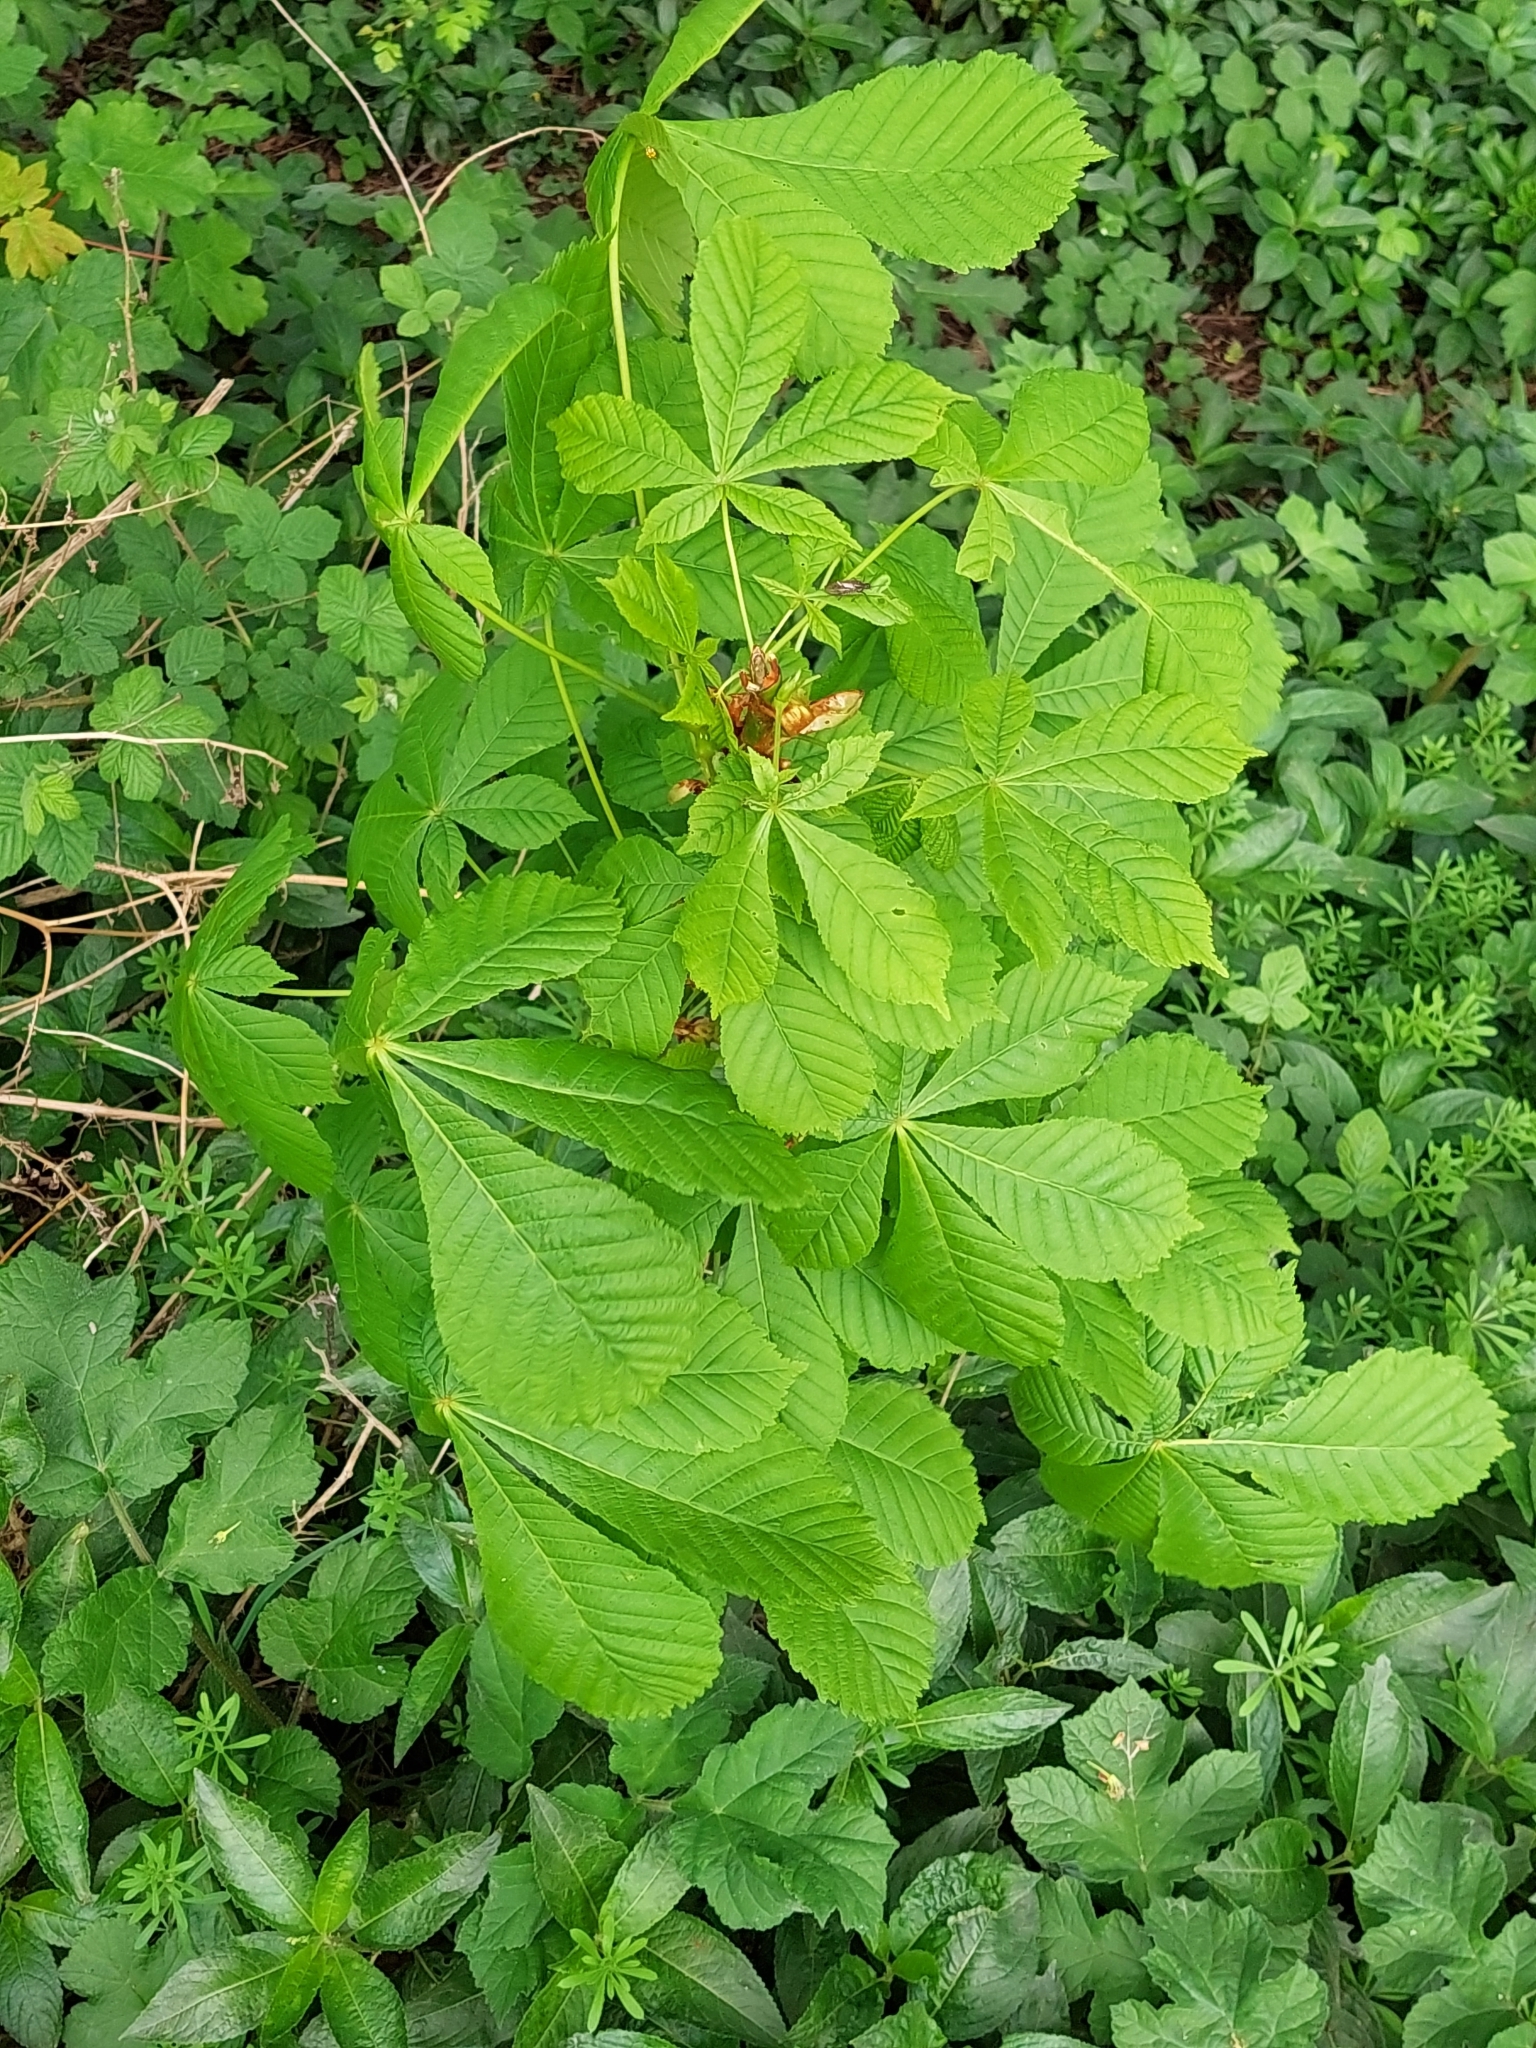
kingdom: Plantae
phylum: Tracheophyta
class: Magnoliopsida
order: Sapindales
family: Sapindaceae
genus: Aesculus
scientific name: Aesculus hippocastanum
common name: Horse-chestnut
